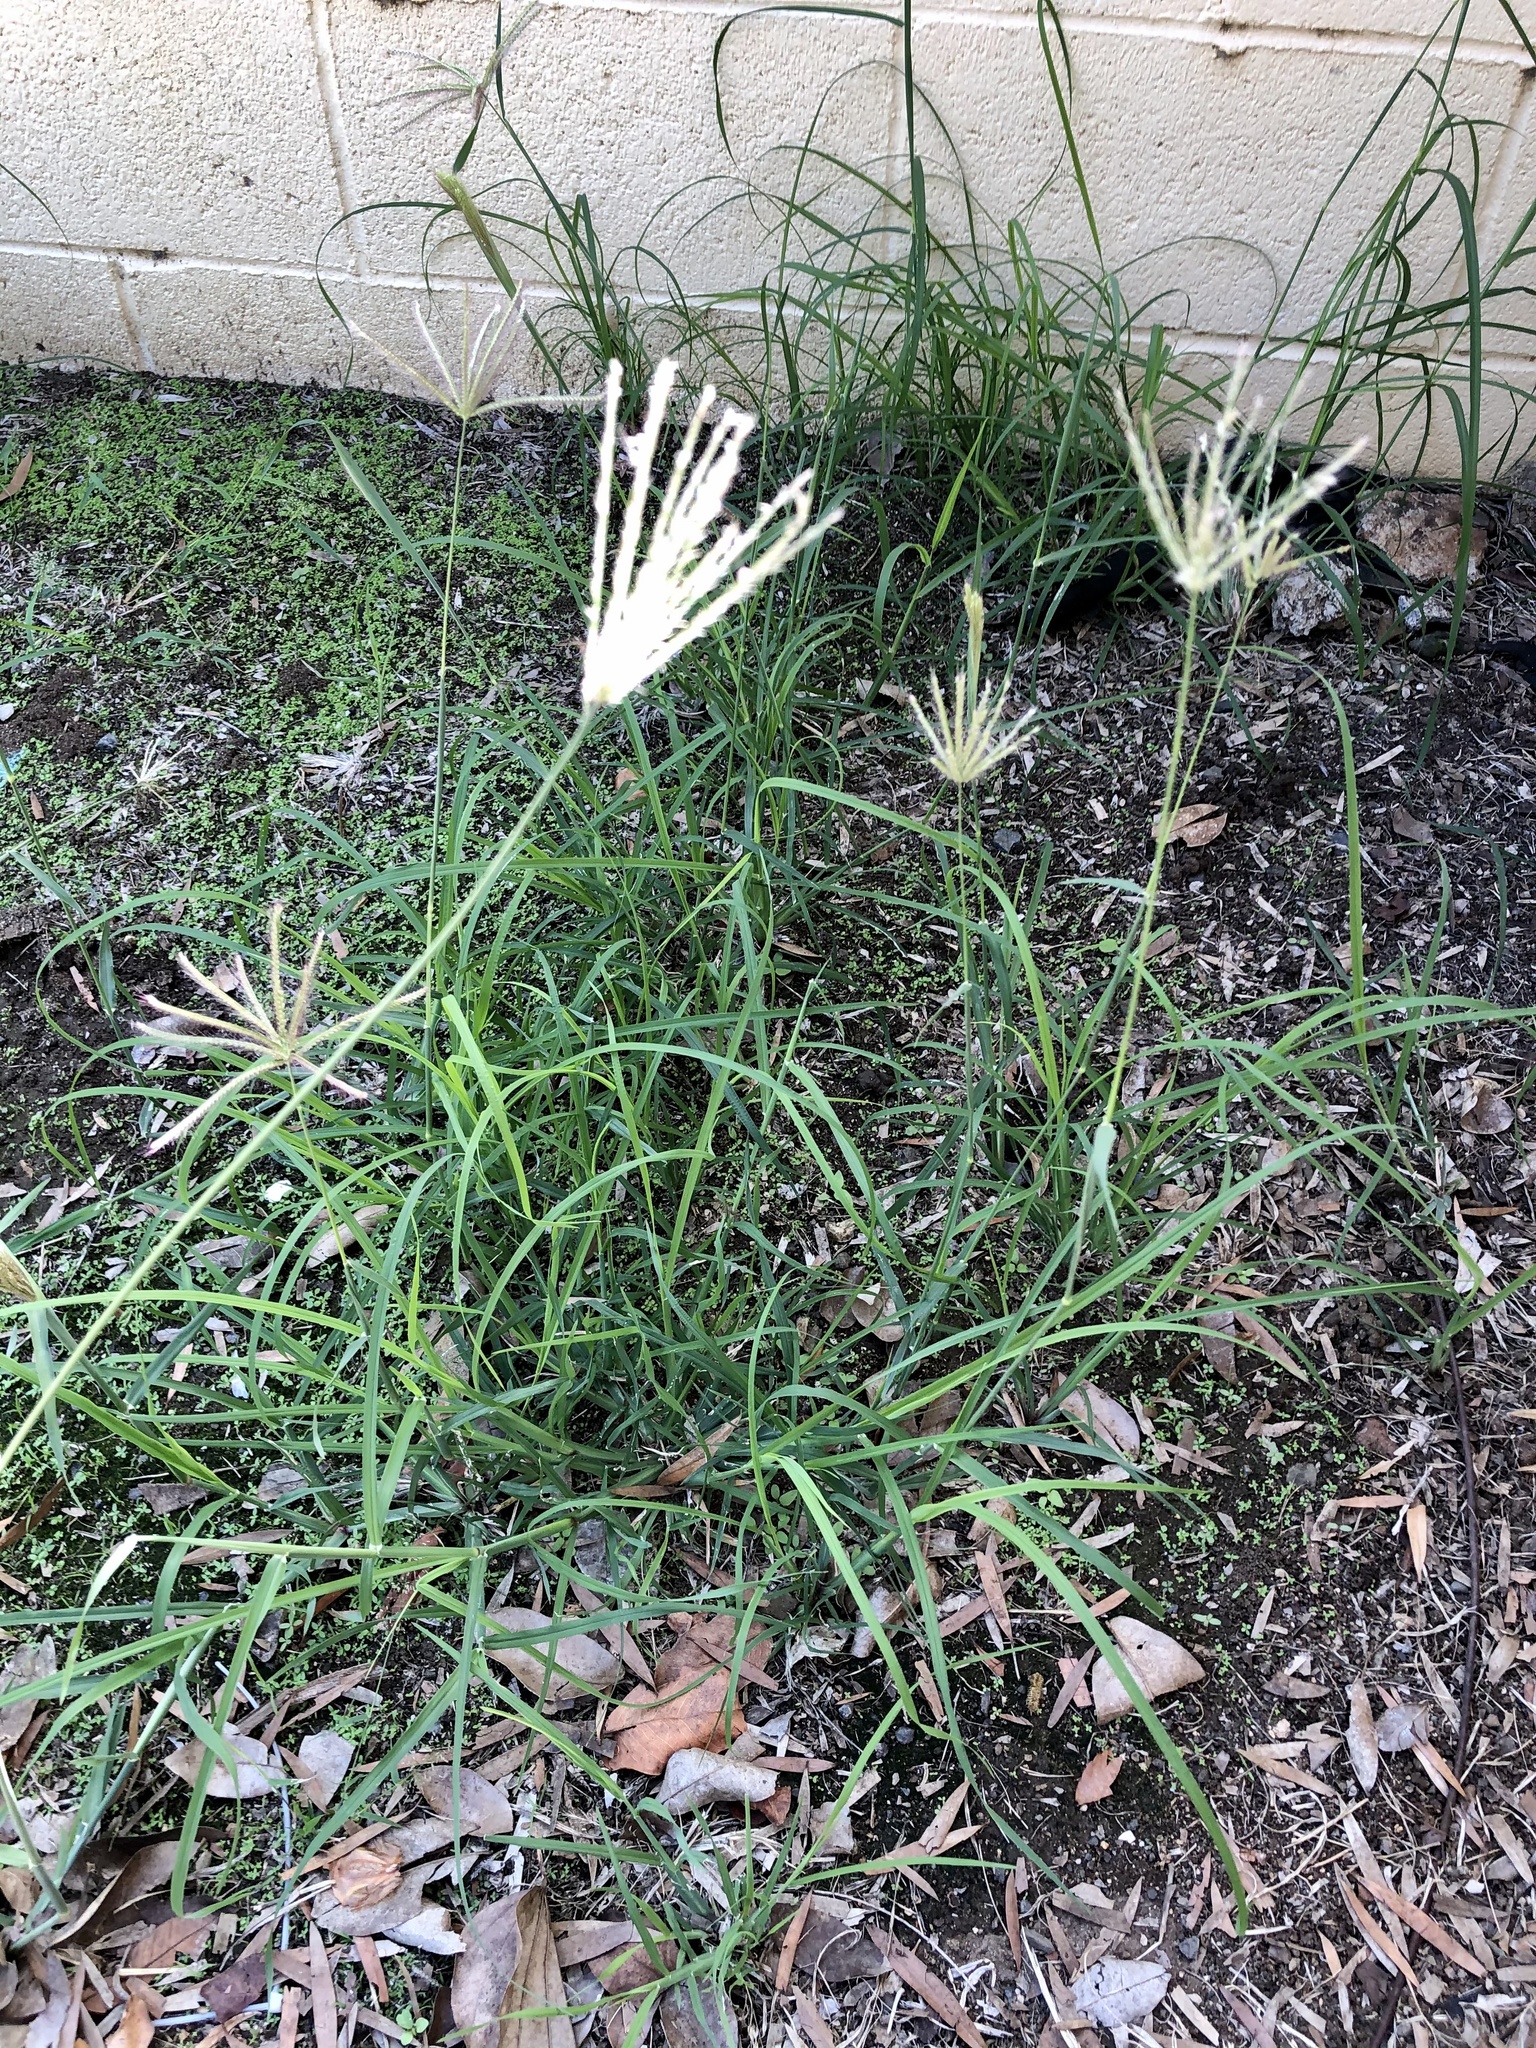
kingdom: Plantae
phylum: Tracheophyta
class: Liliopsida
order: Poales
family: Poaceae
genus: Chloris
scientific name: Chloris barbata
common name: Swollen fingergrass
